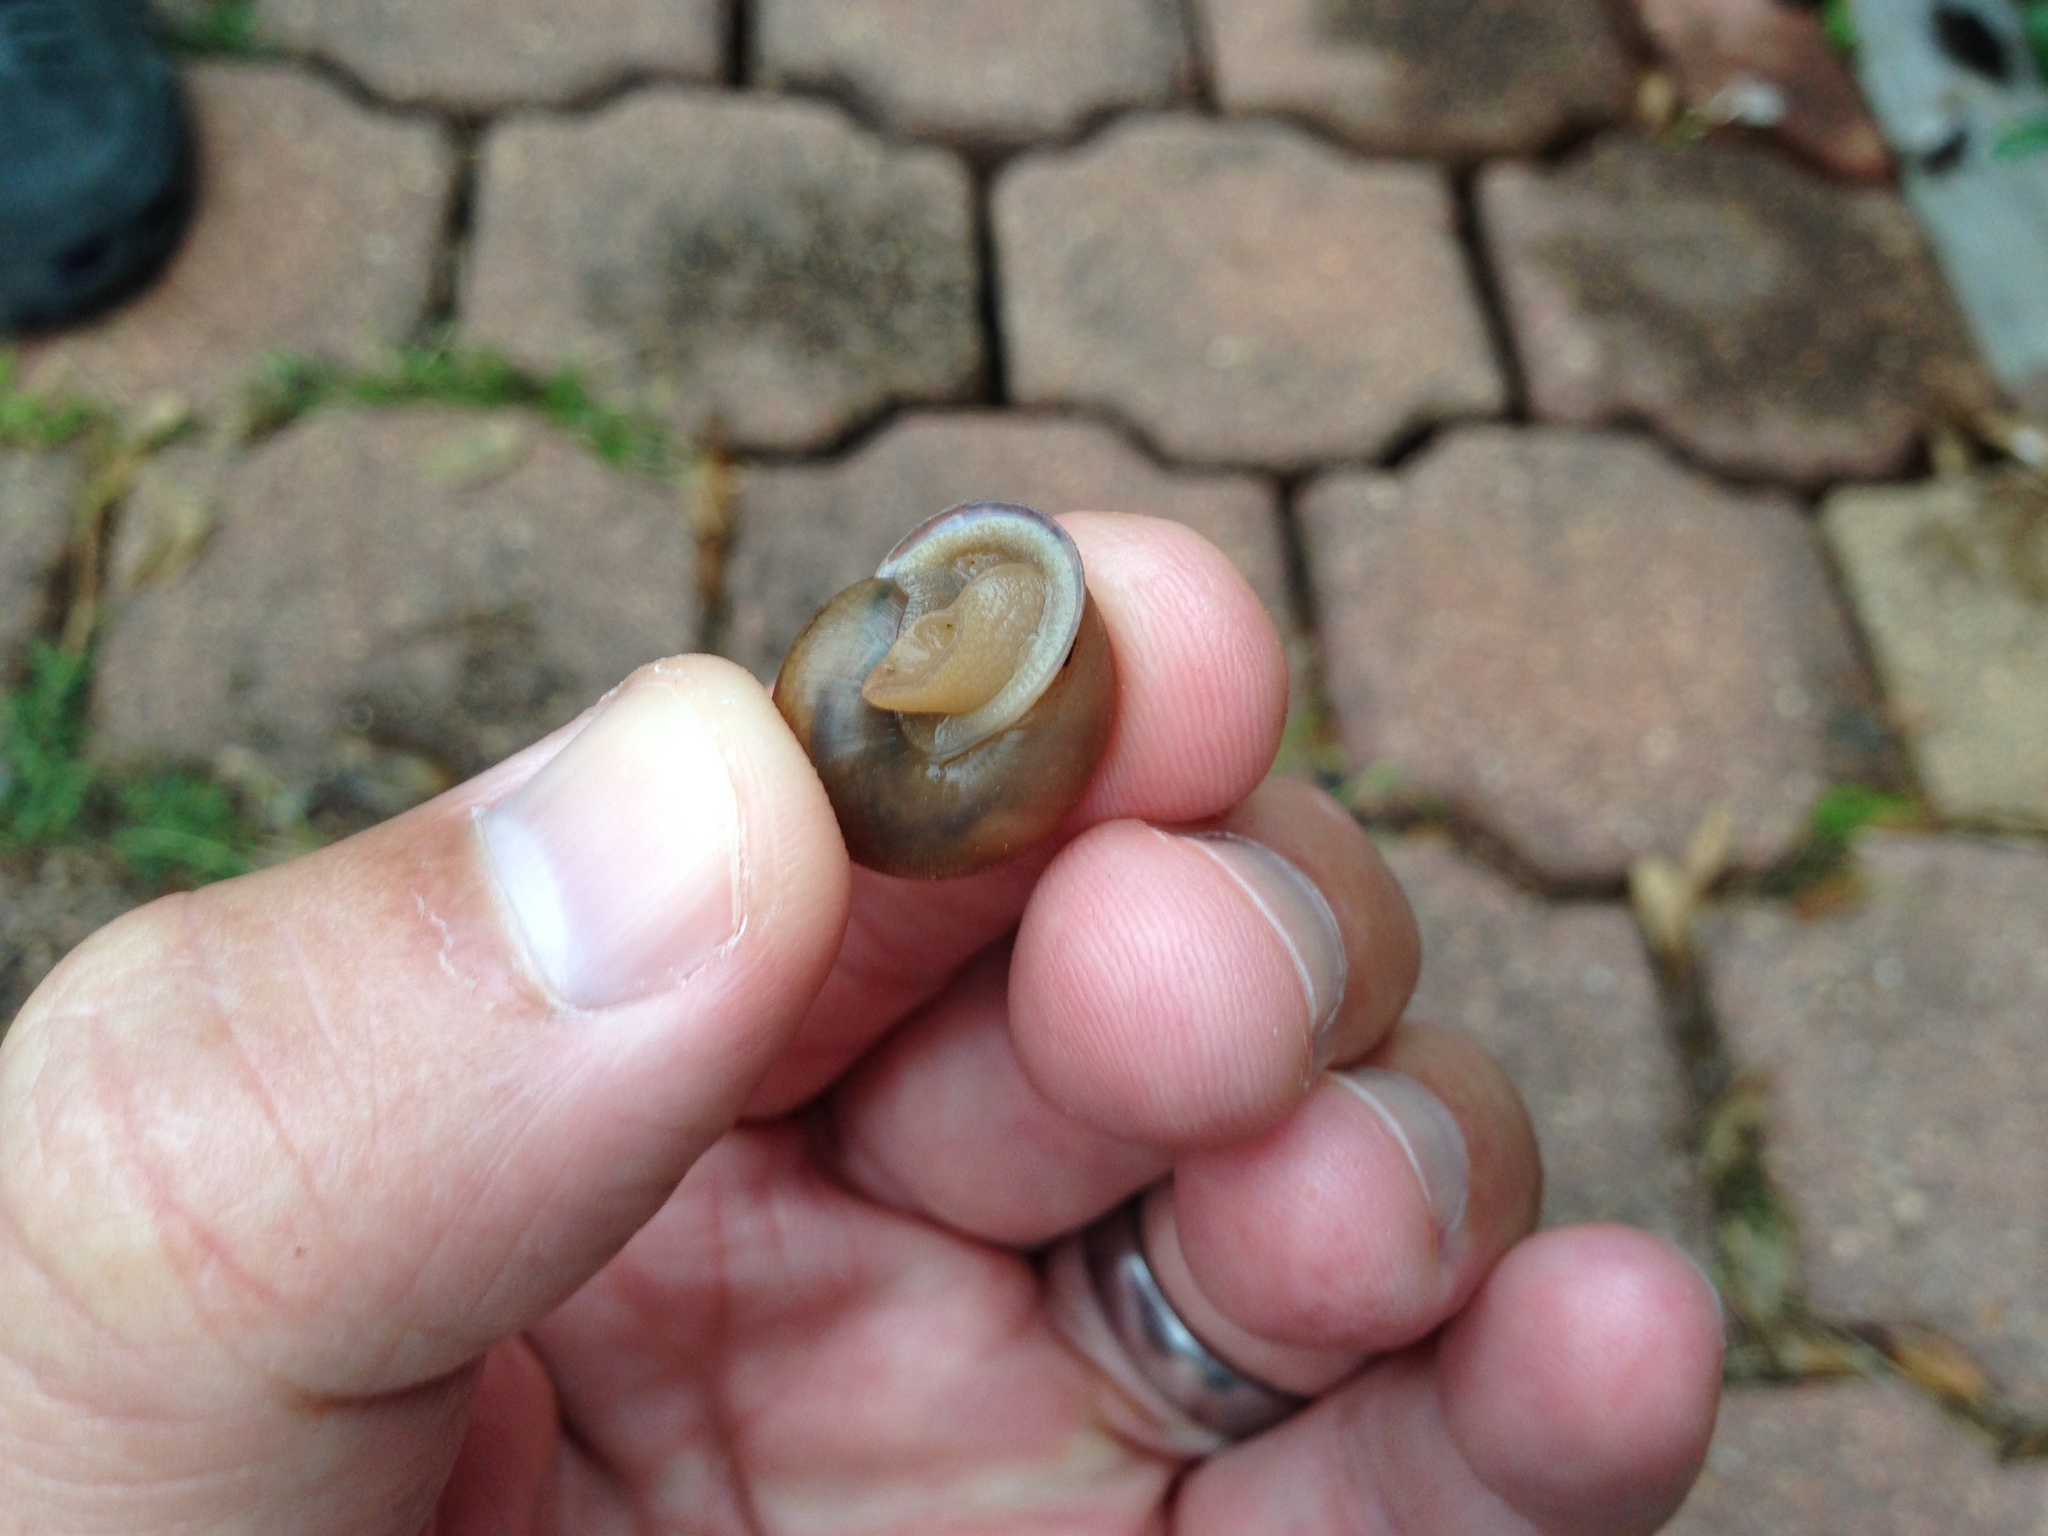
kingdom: Animalia
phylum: Mollusca
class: Gastropoda
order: Stylommatophora
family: Polygyridae
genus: Mesodon
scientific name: Mesodon thyroidus
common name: White-lip globe
